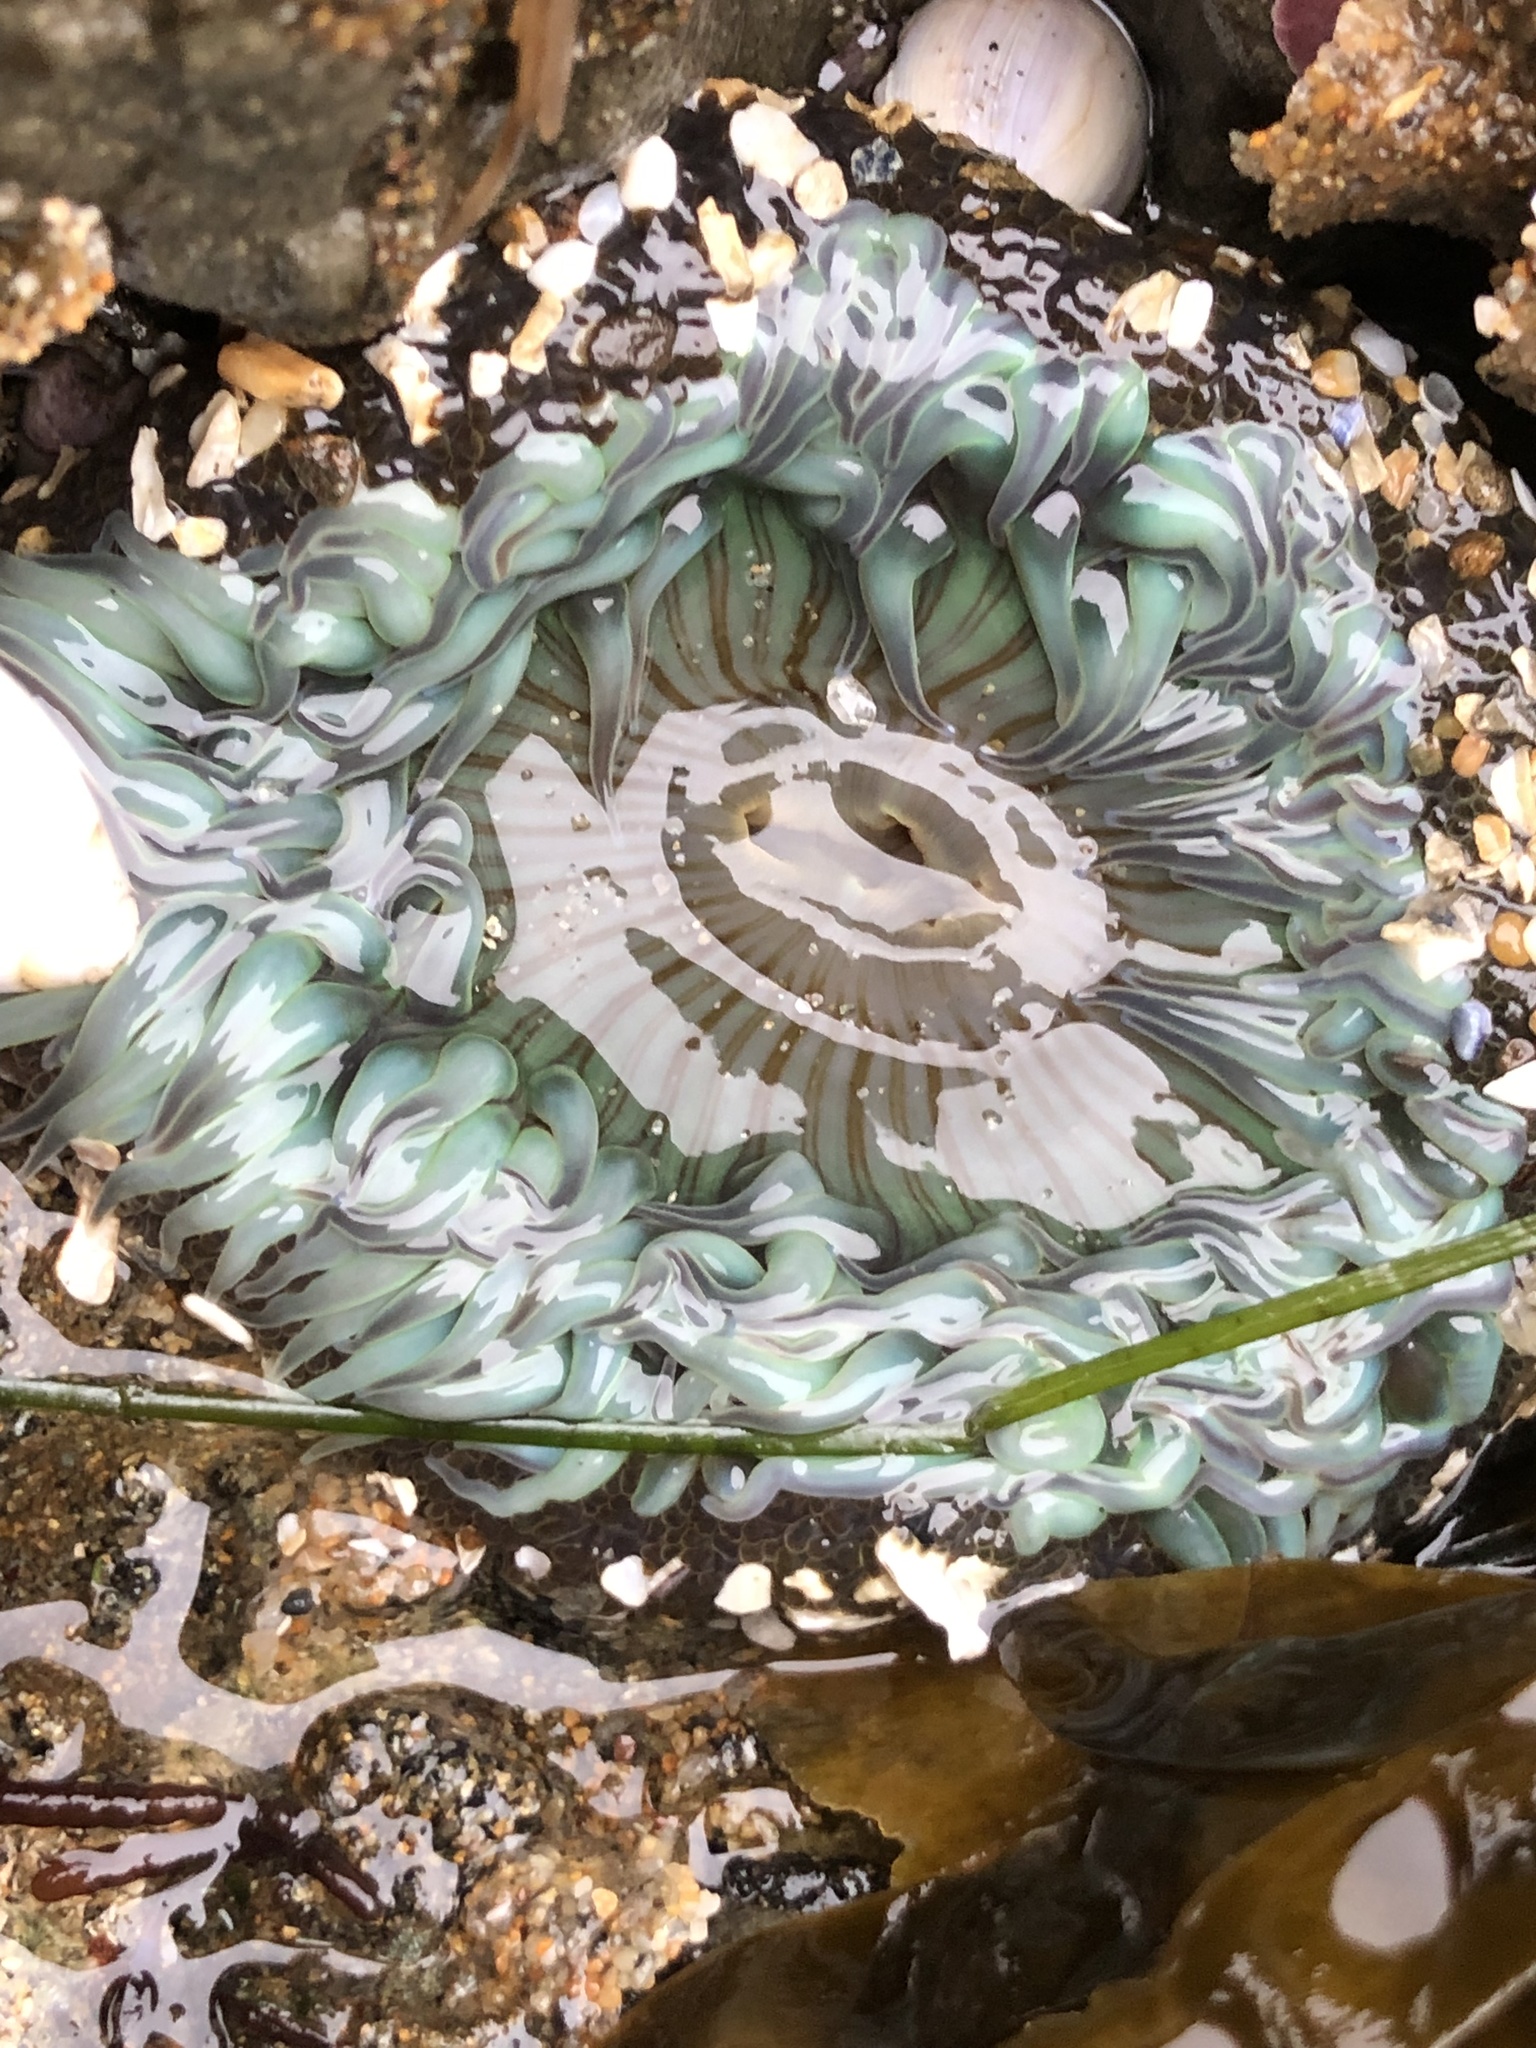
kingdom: Animalia
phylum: Cnidaria
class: Anthozoa
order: Actiniaria
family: Actiniidae
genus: Anthopleura
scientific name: Anthopleura sola
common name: Sun anemone
